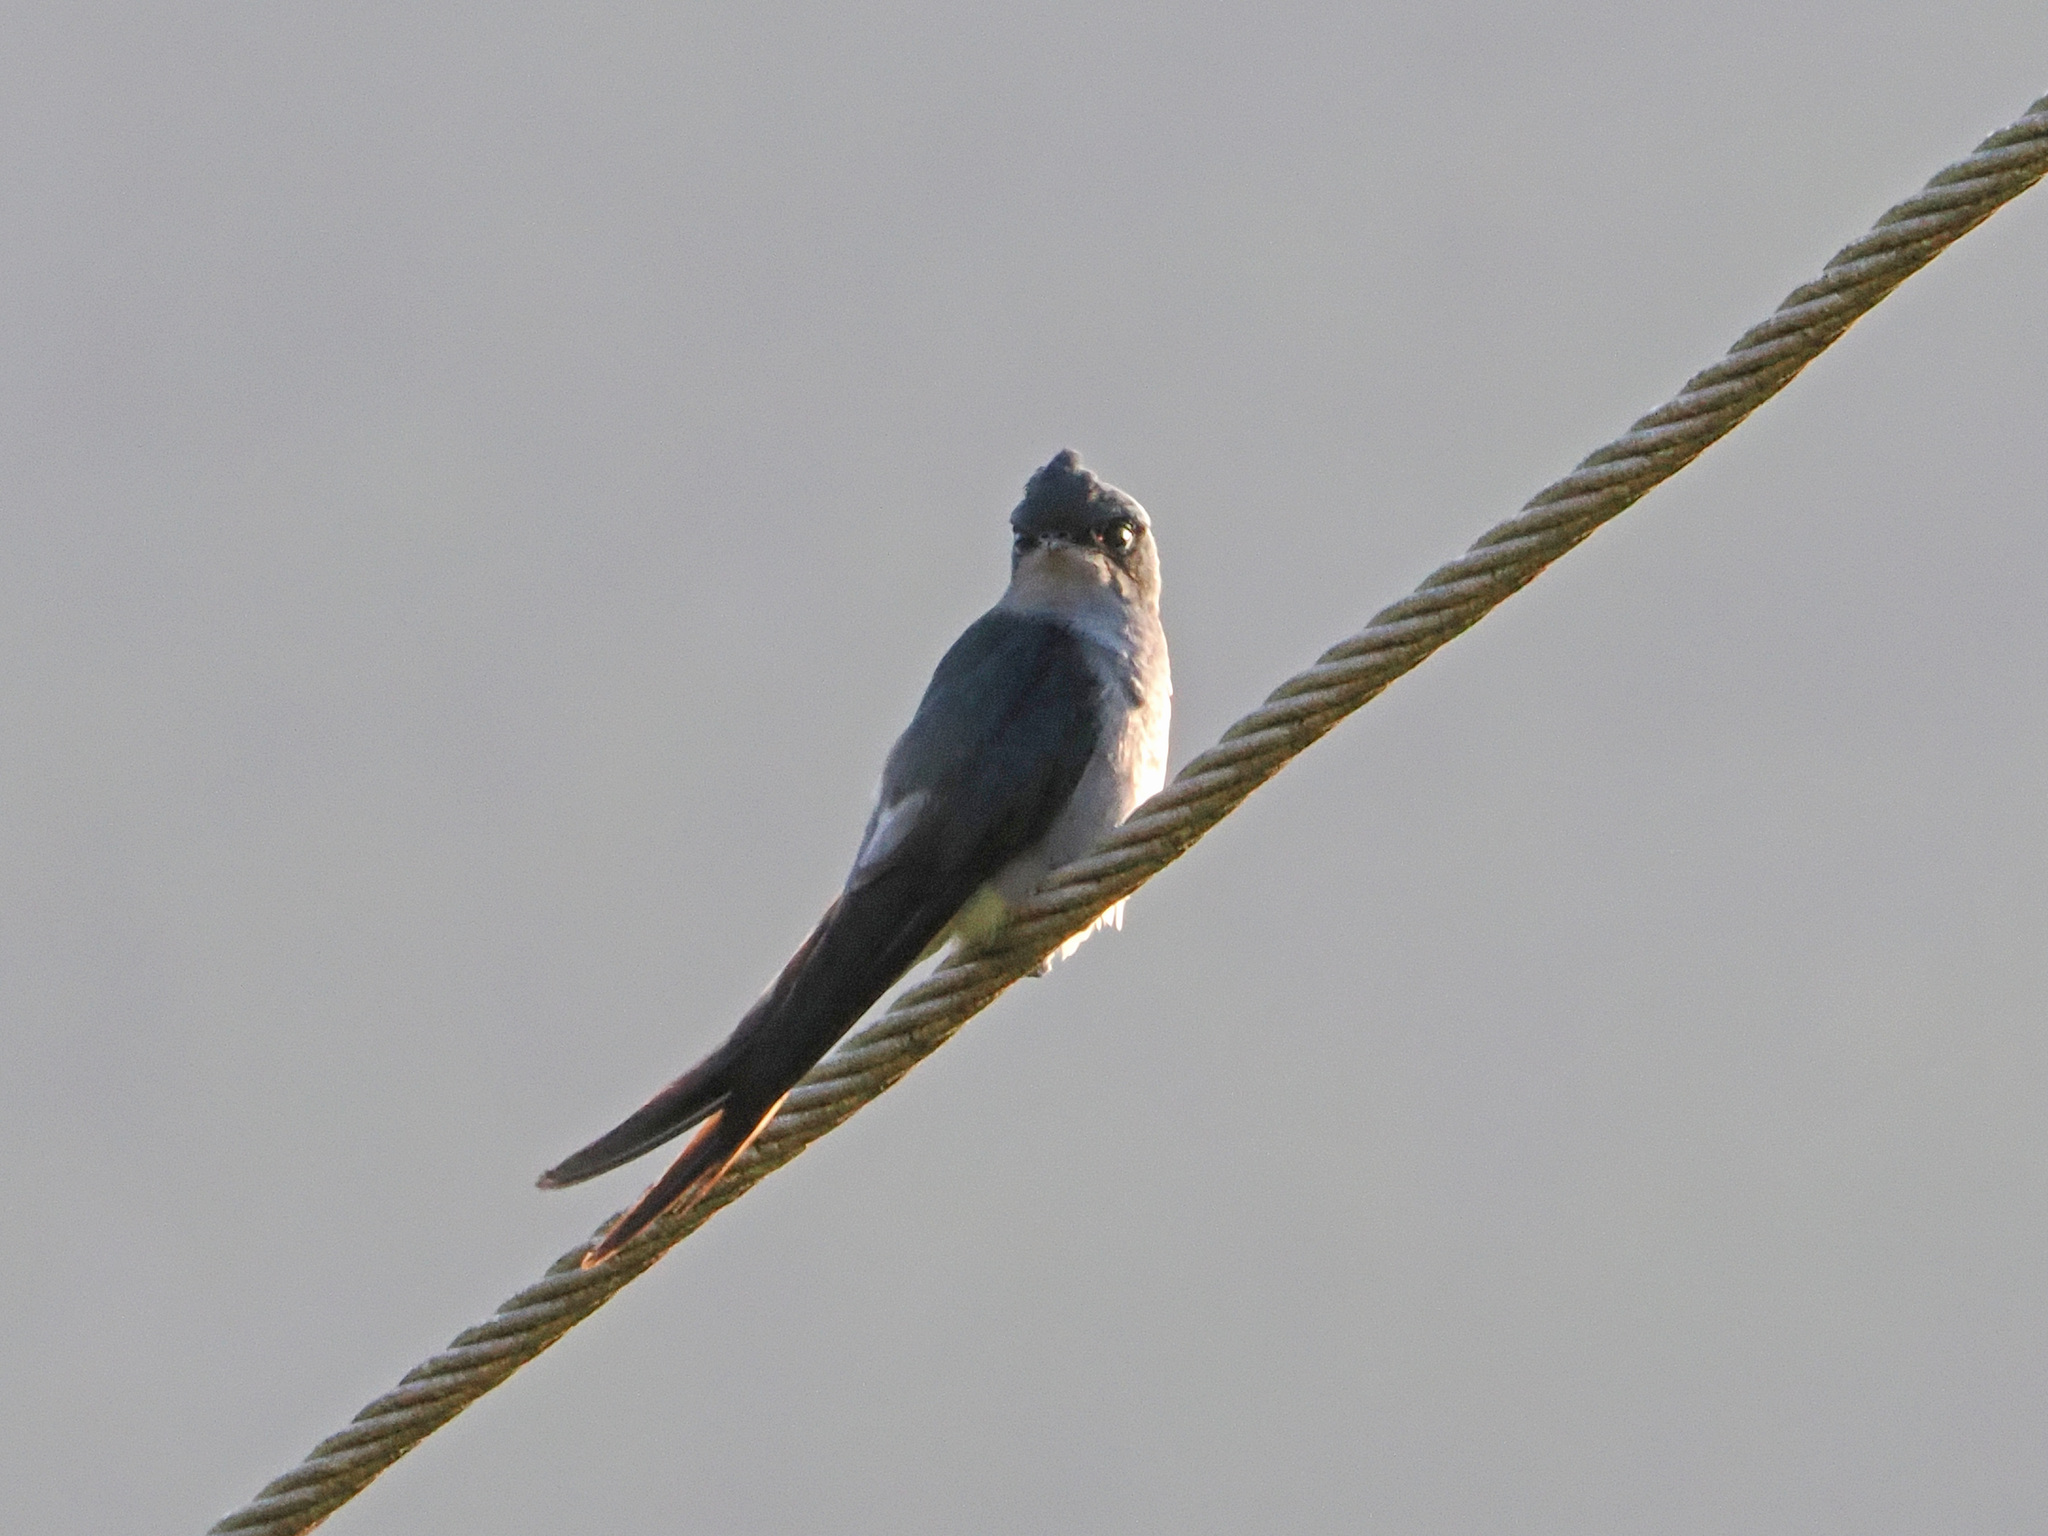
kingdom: Animalia
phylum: Chordata
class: Aves
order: Apodiformes
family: Hemiprocnidae
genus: Hemiprocne
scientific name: Hemiprocne longipennis
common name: Grey-rumped treeswift
